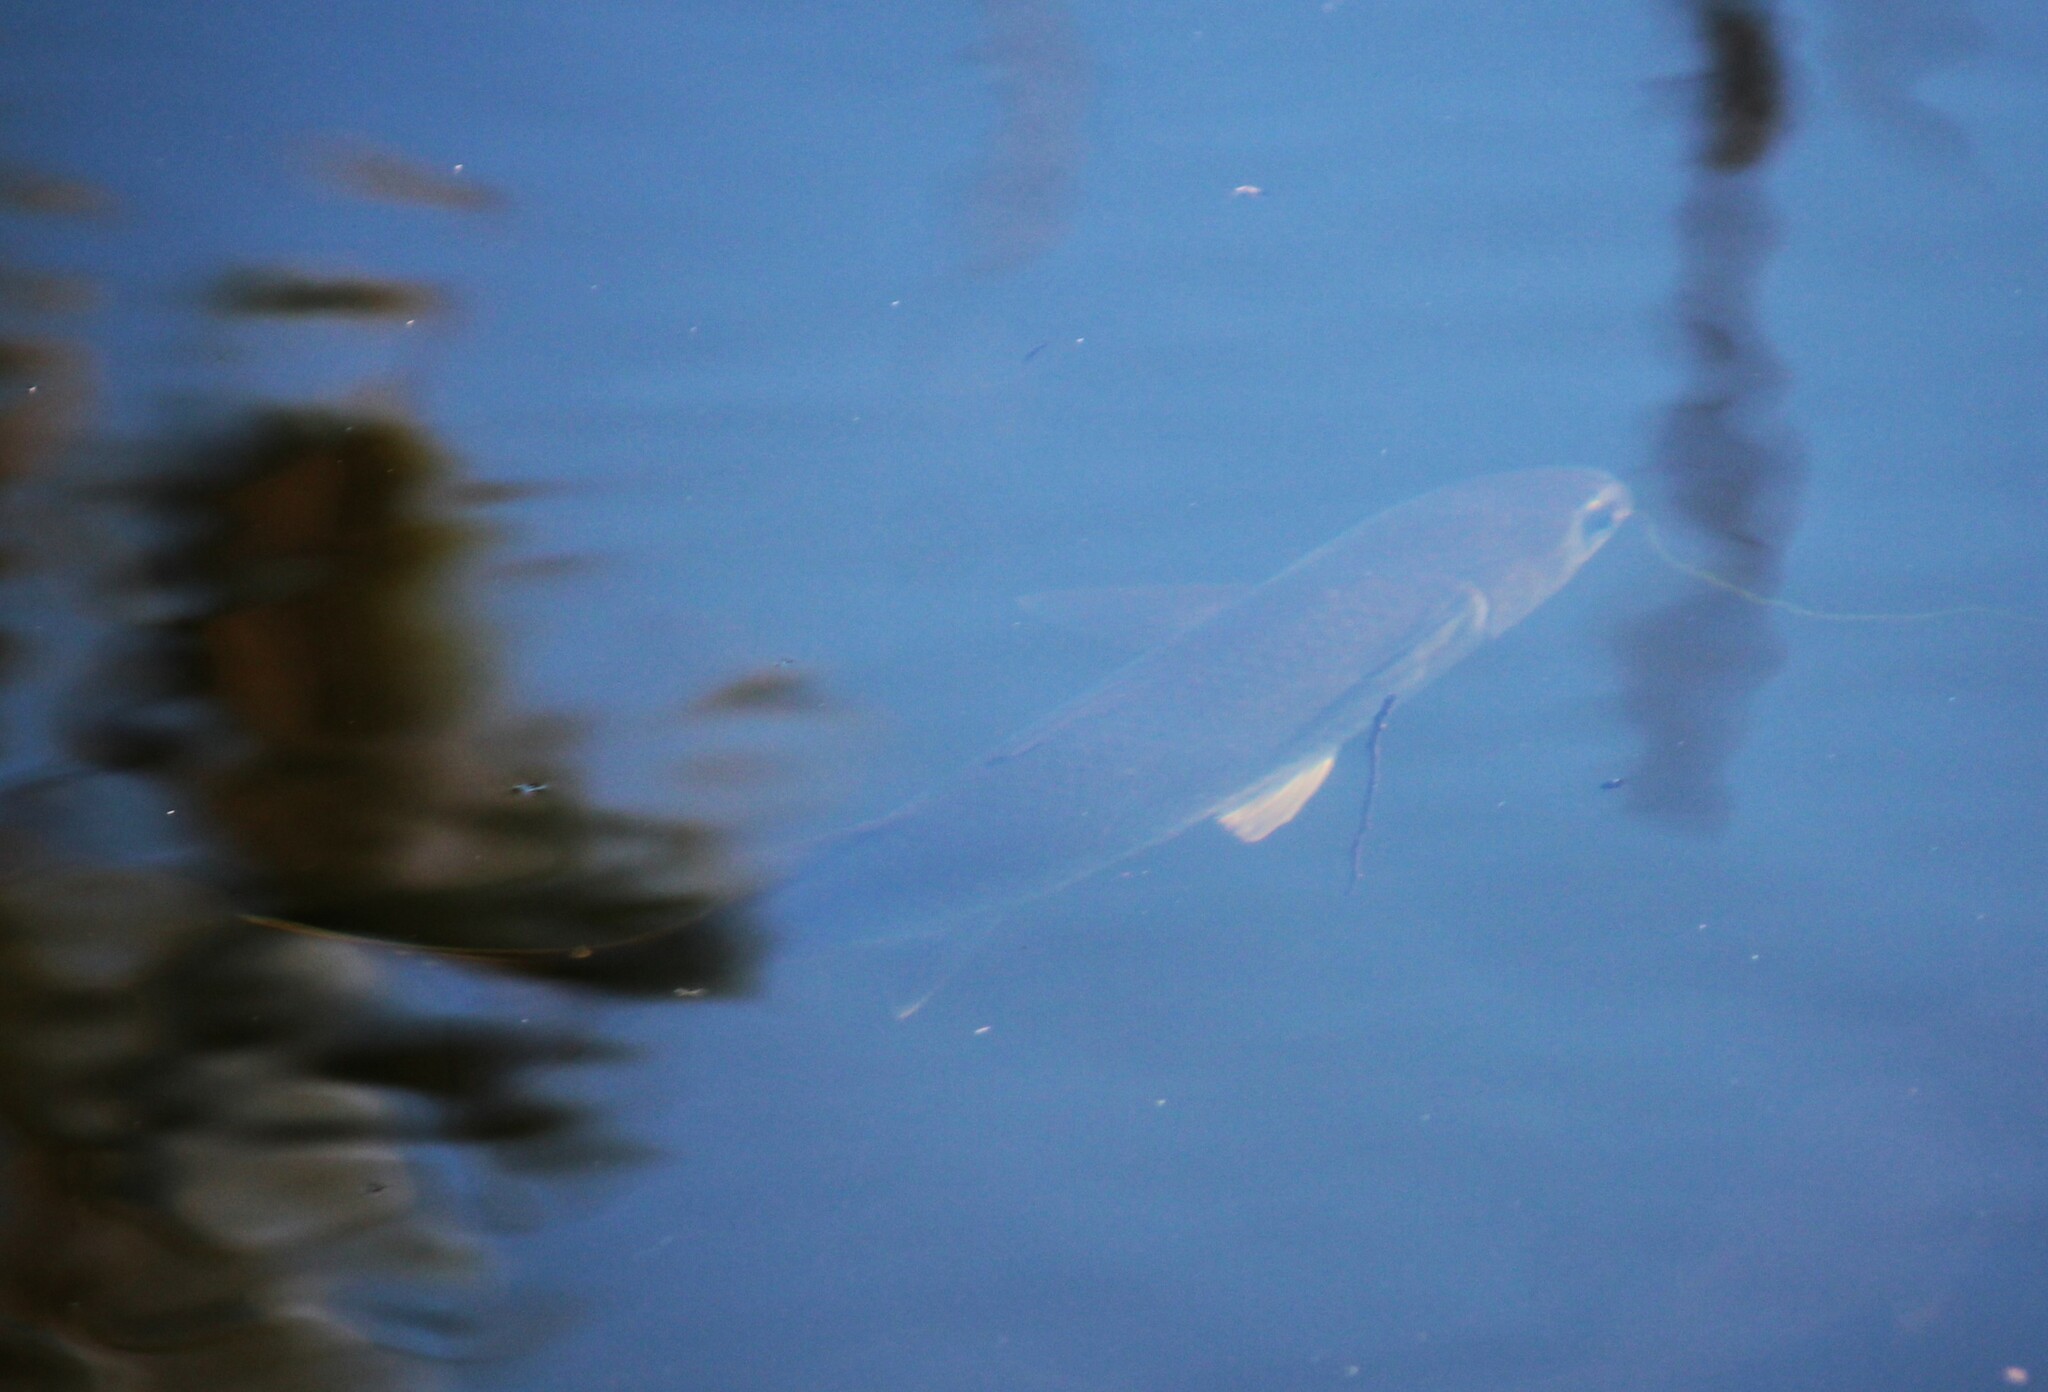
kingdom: Animalia
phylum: Chordata
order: Mugiliformes
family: Mugilidae
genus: Mugil
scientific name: Mugil cephalus
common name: Grey mullet
